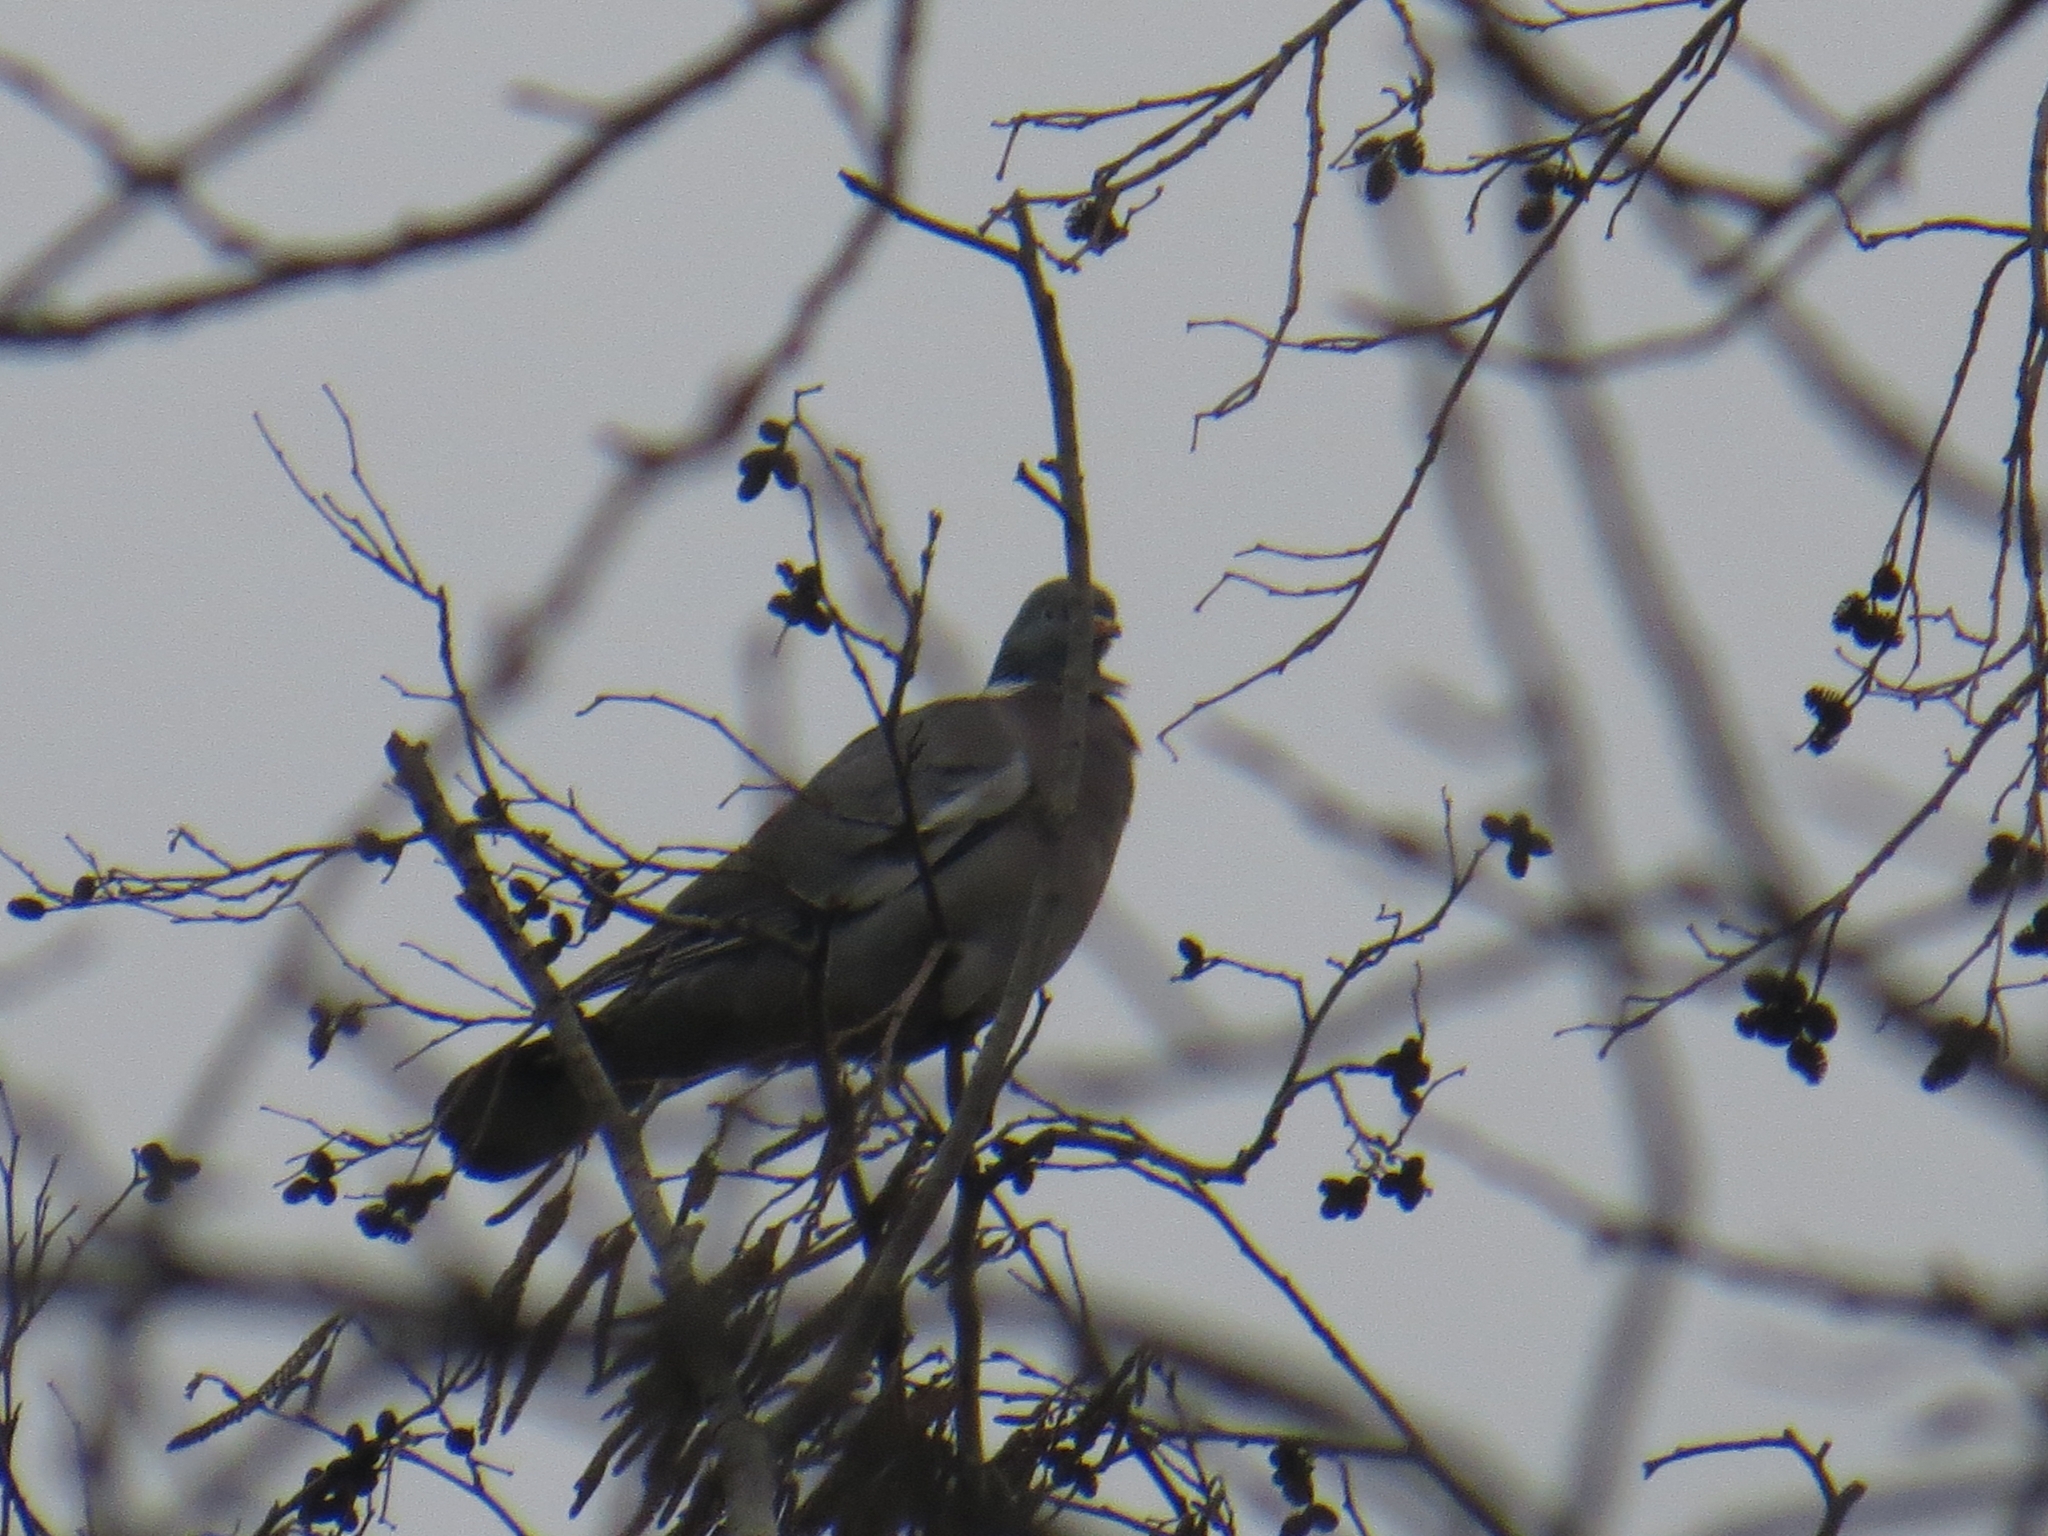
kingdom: Animalia
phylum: Chordata
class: Aves
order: Columbiformes
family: Columbidae
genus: Columba
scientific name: Columba palumbus
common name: Common wood pigeon
